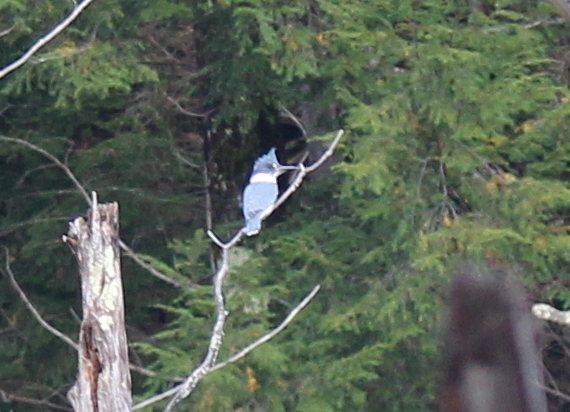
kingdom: Animalia
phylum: Chordata
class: Aves
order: Coraciiformes
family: Alcedinidae
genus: Megaceryle
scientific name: Megaceryle alcyon
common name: Belted kingfisher
